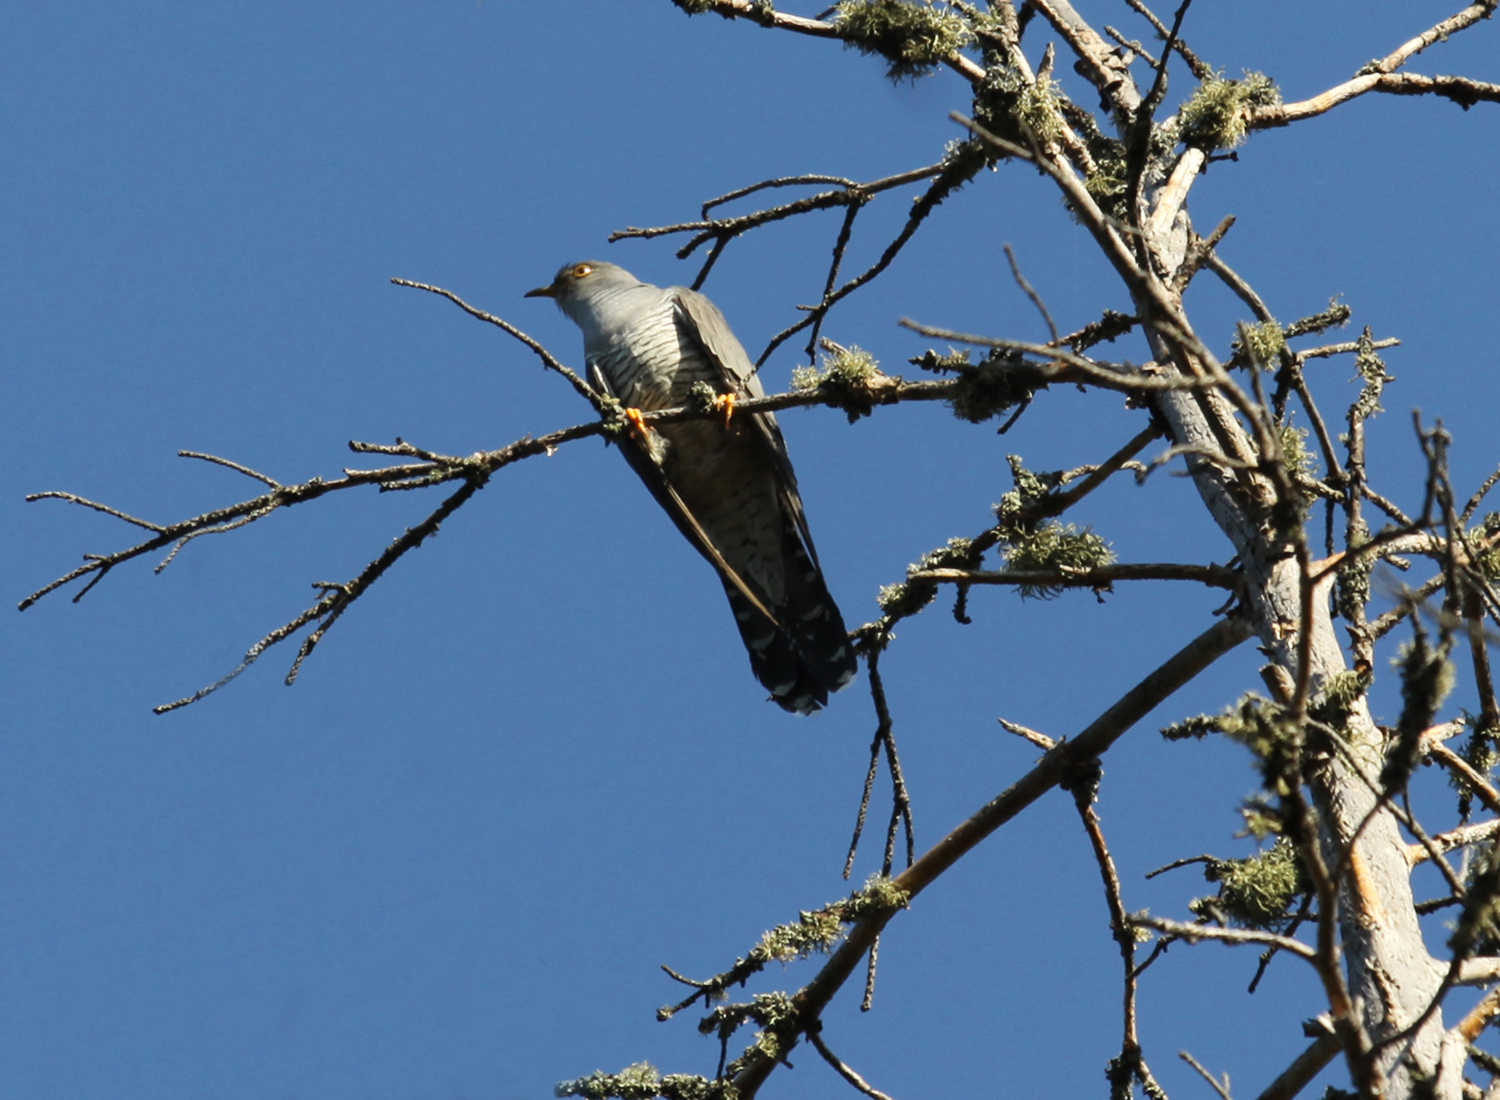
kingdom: Animalia
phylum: Chordata
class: Aves
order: Cuculiformes
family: Cuculidae
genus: Cuculus
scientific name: Cuculus canorus
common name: Common cuckoo
